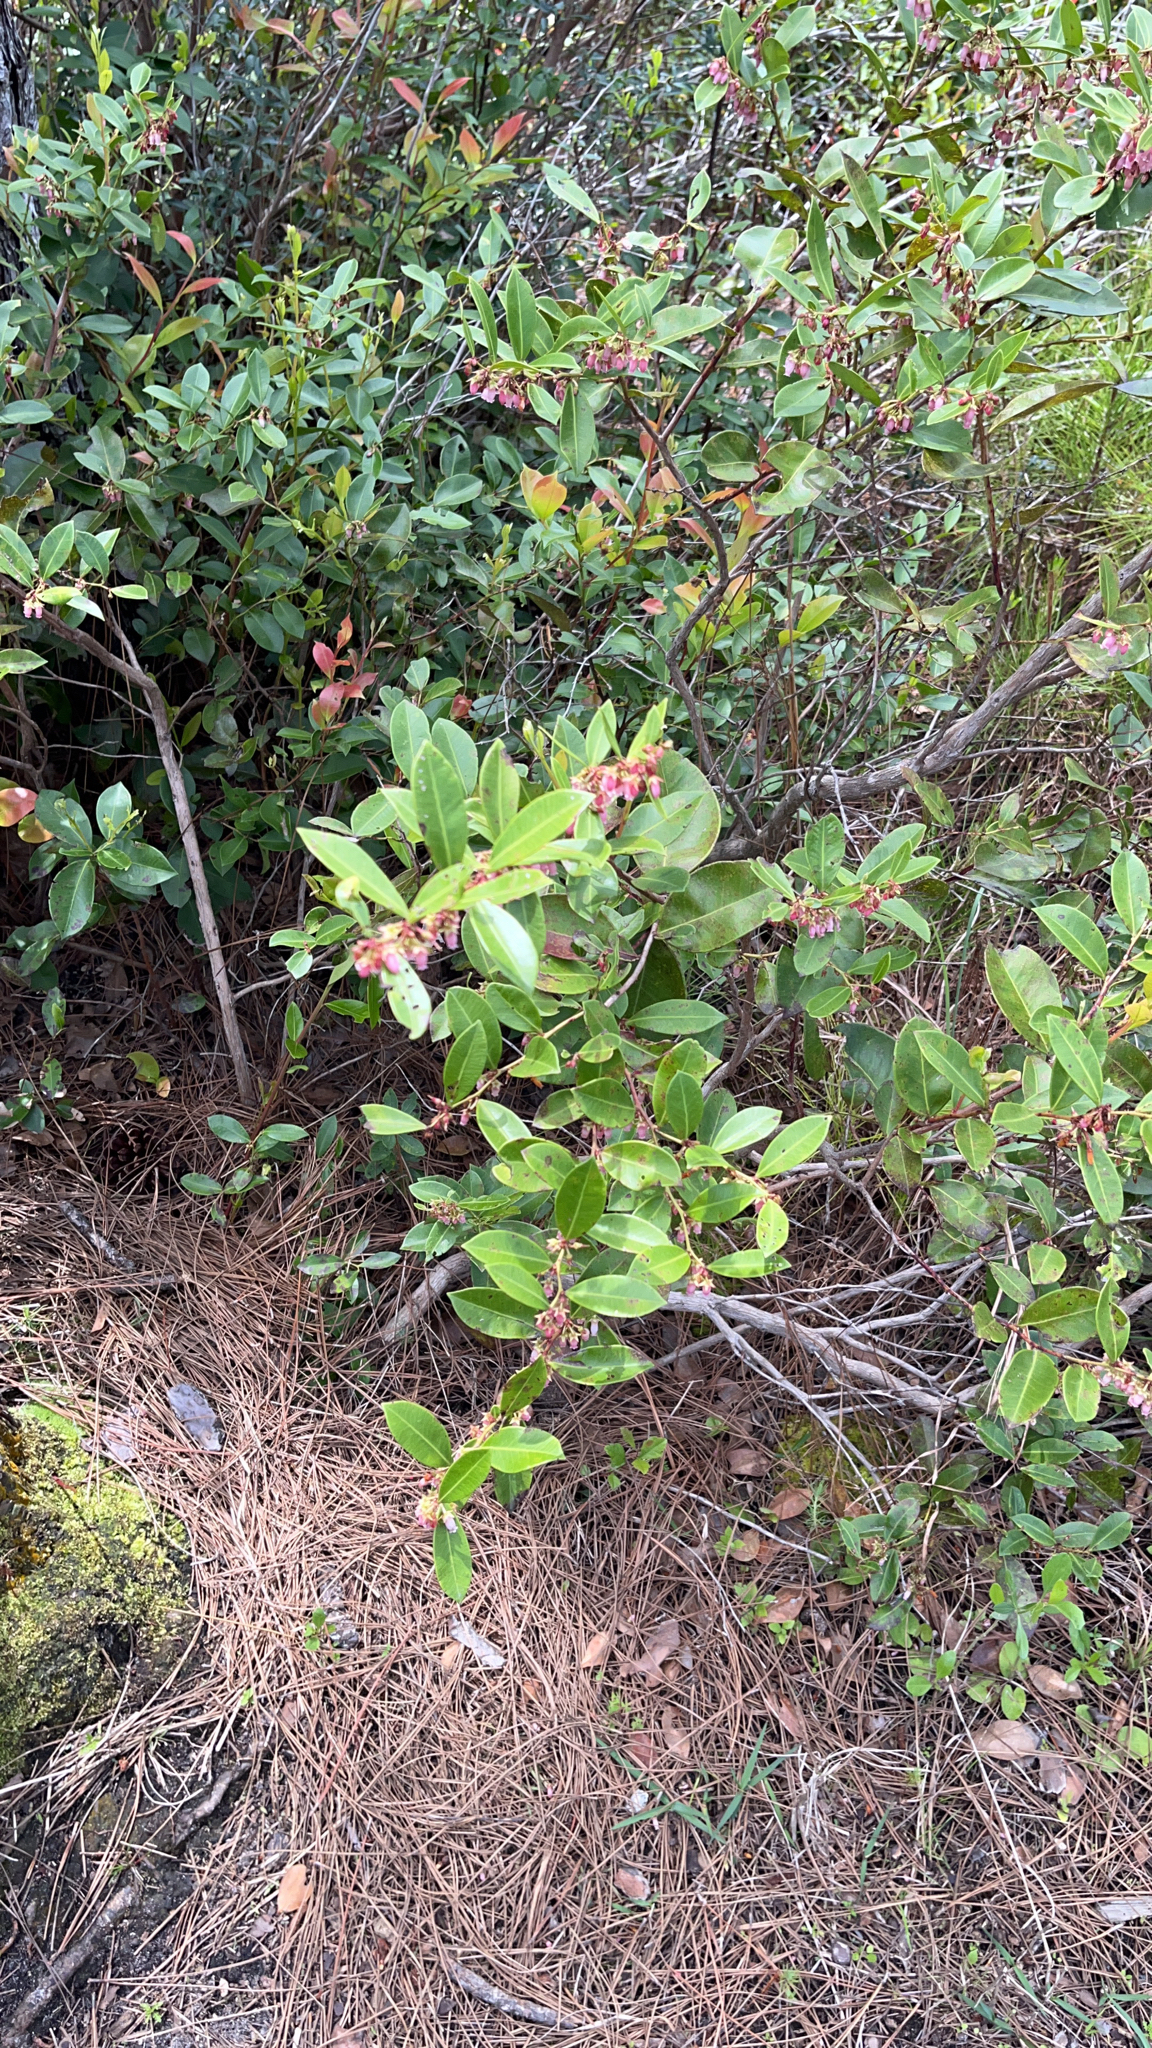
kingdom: Plantae
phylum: Tracheophyta
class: Magnoliopsida
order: Ericales
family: Ericaceae
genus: Lyonia
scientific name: Lyonia lucida
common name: Fetterbush
